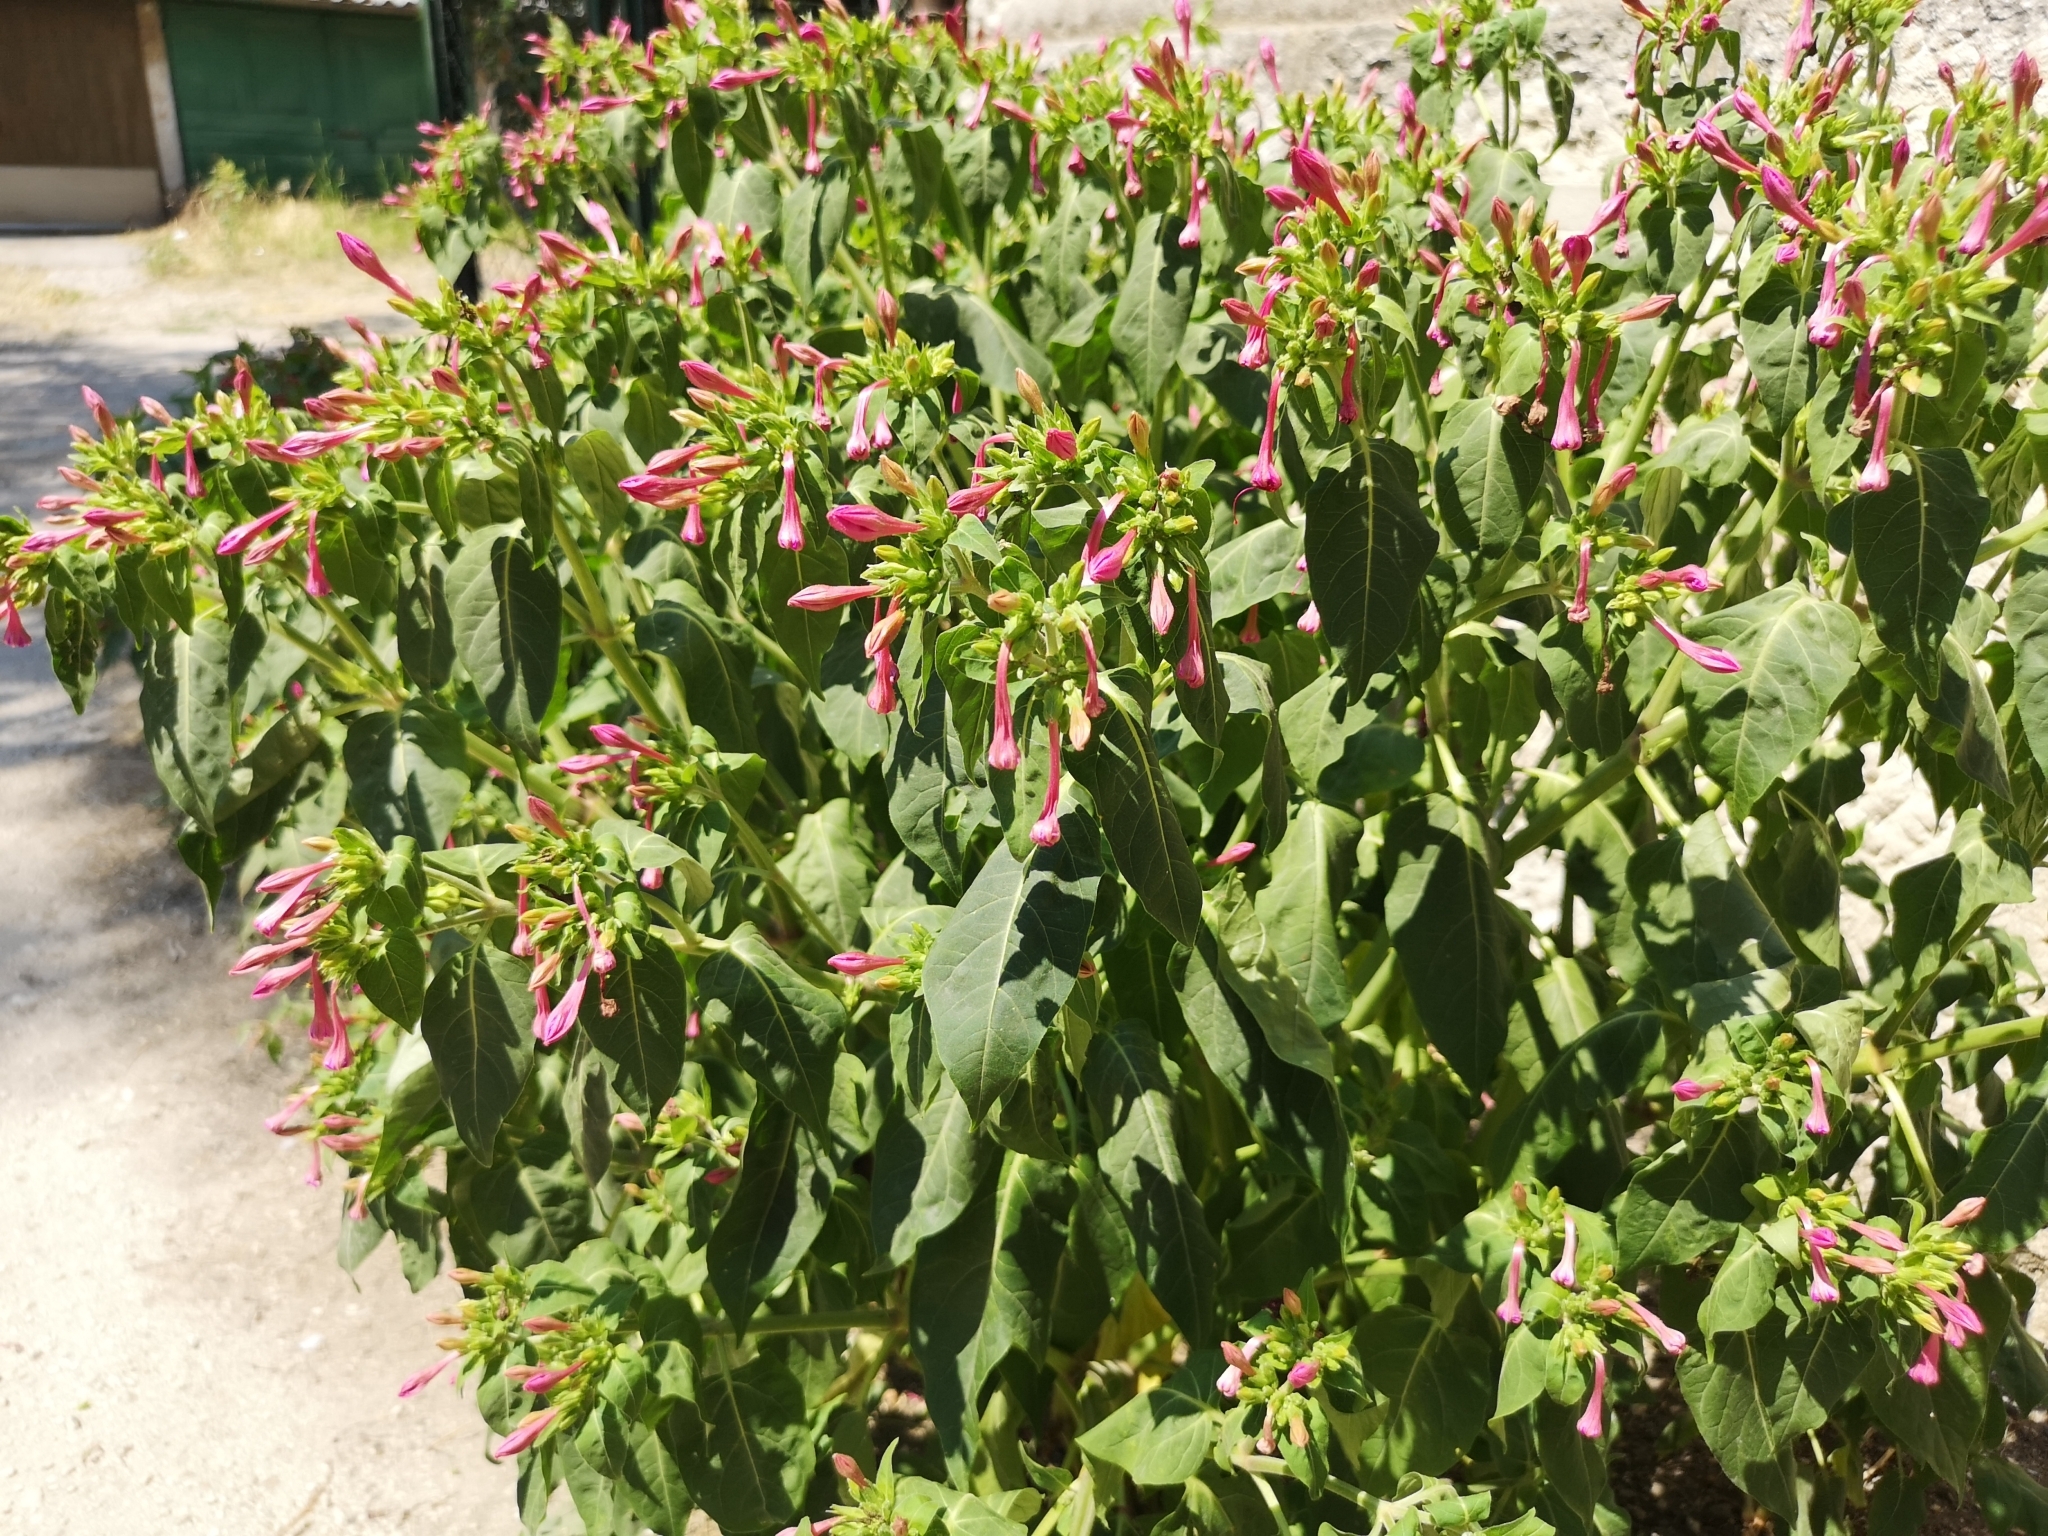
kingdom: Plantae
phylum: Tracheophyta
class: Magnoliopsida
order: Caryophyllales
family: Nyctaginaceae
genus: Mirabilis
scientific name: Mirabilis jalapa
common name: Marvel-of-peru
